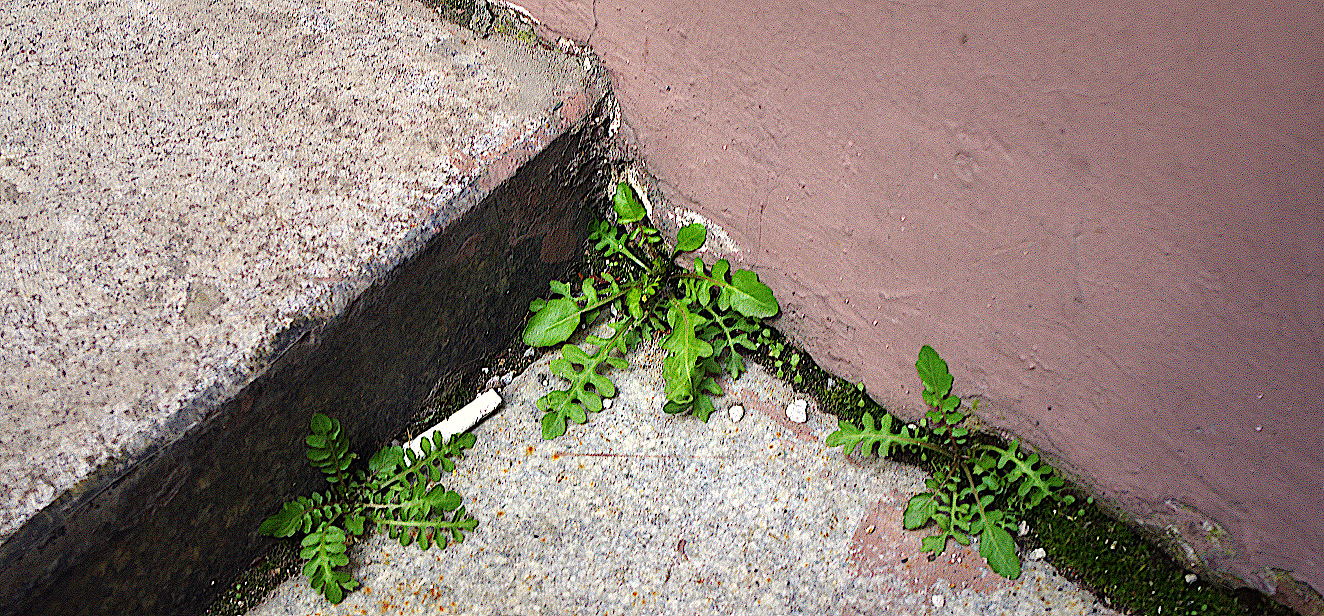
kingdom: Plantae
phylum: Tracheophyta
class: Magnoliopsida
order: Brassicales
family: Brassicaceae
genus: Rorippa
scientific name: Rorippa palustris
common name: Marsh yellow-cress
